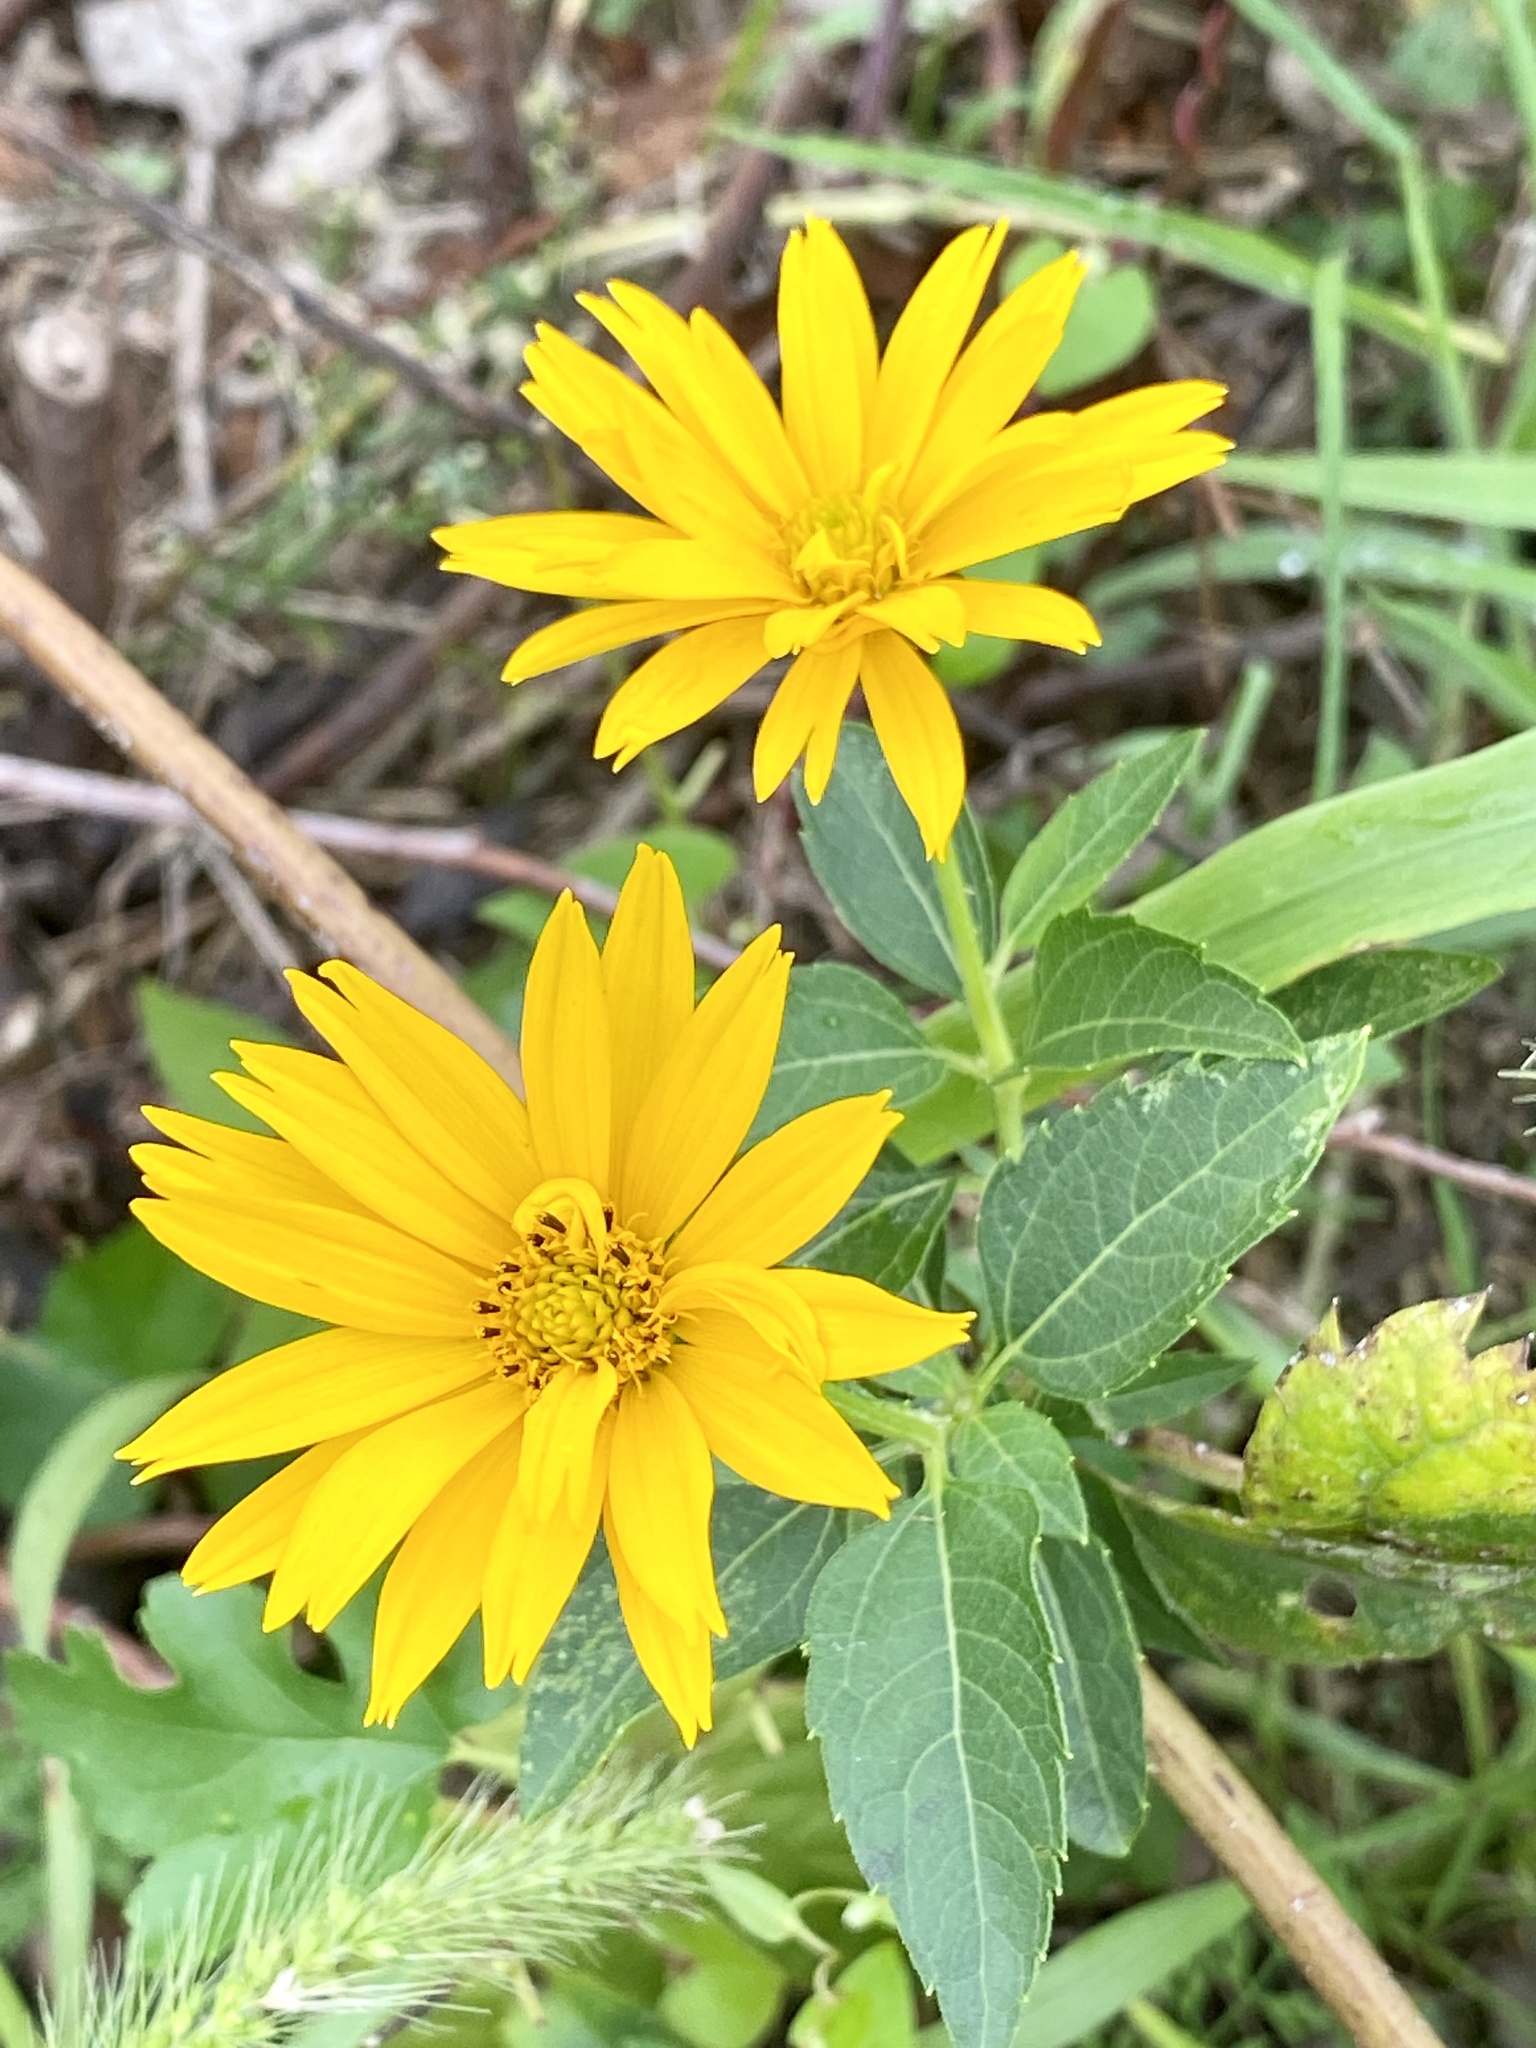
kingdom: Plantae
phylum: Tracheophyta
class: Magnoliopsida
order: Asterales
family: Asteraceae
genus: Heliopsis
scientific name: Heliopsis helianthoides
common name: False sunflower
